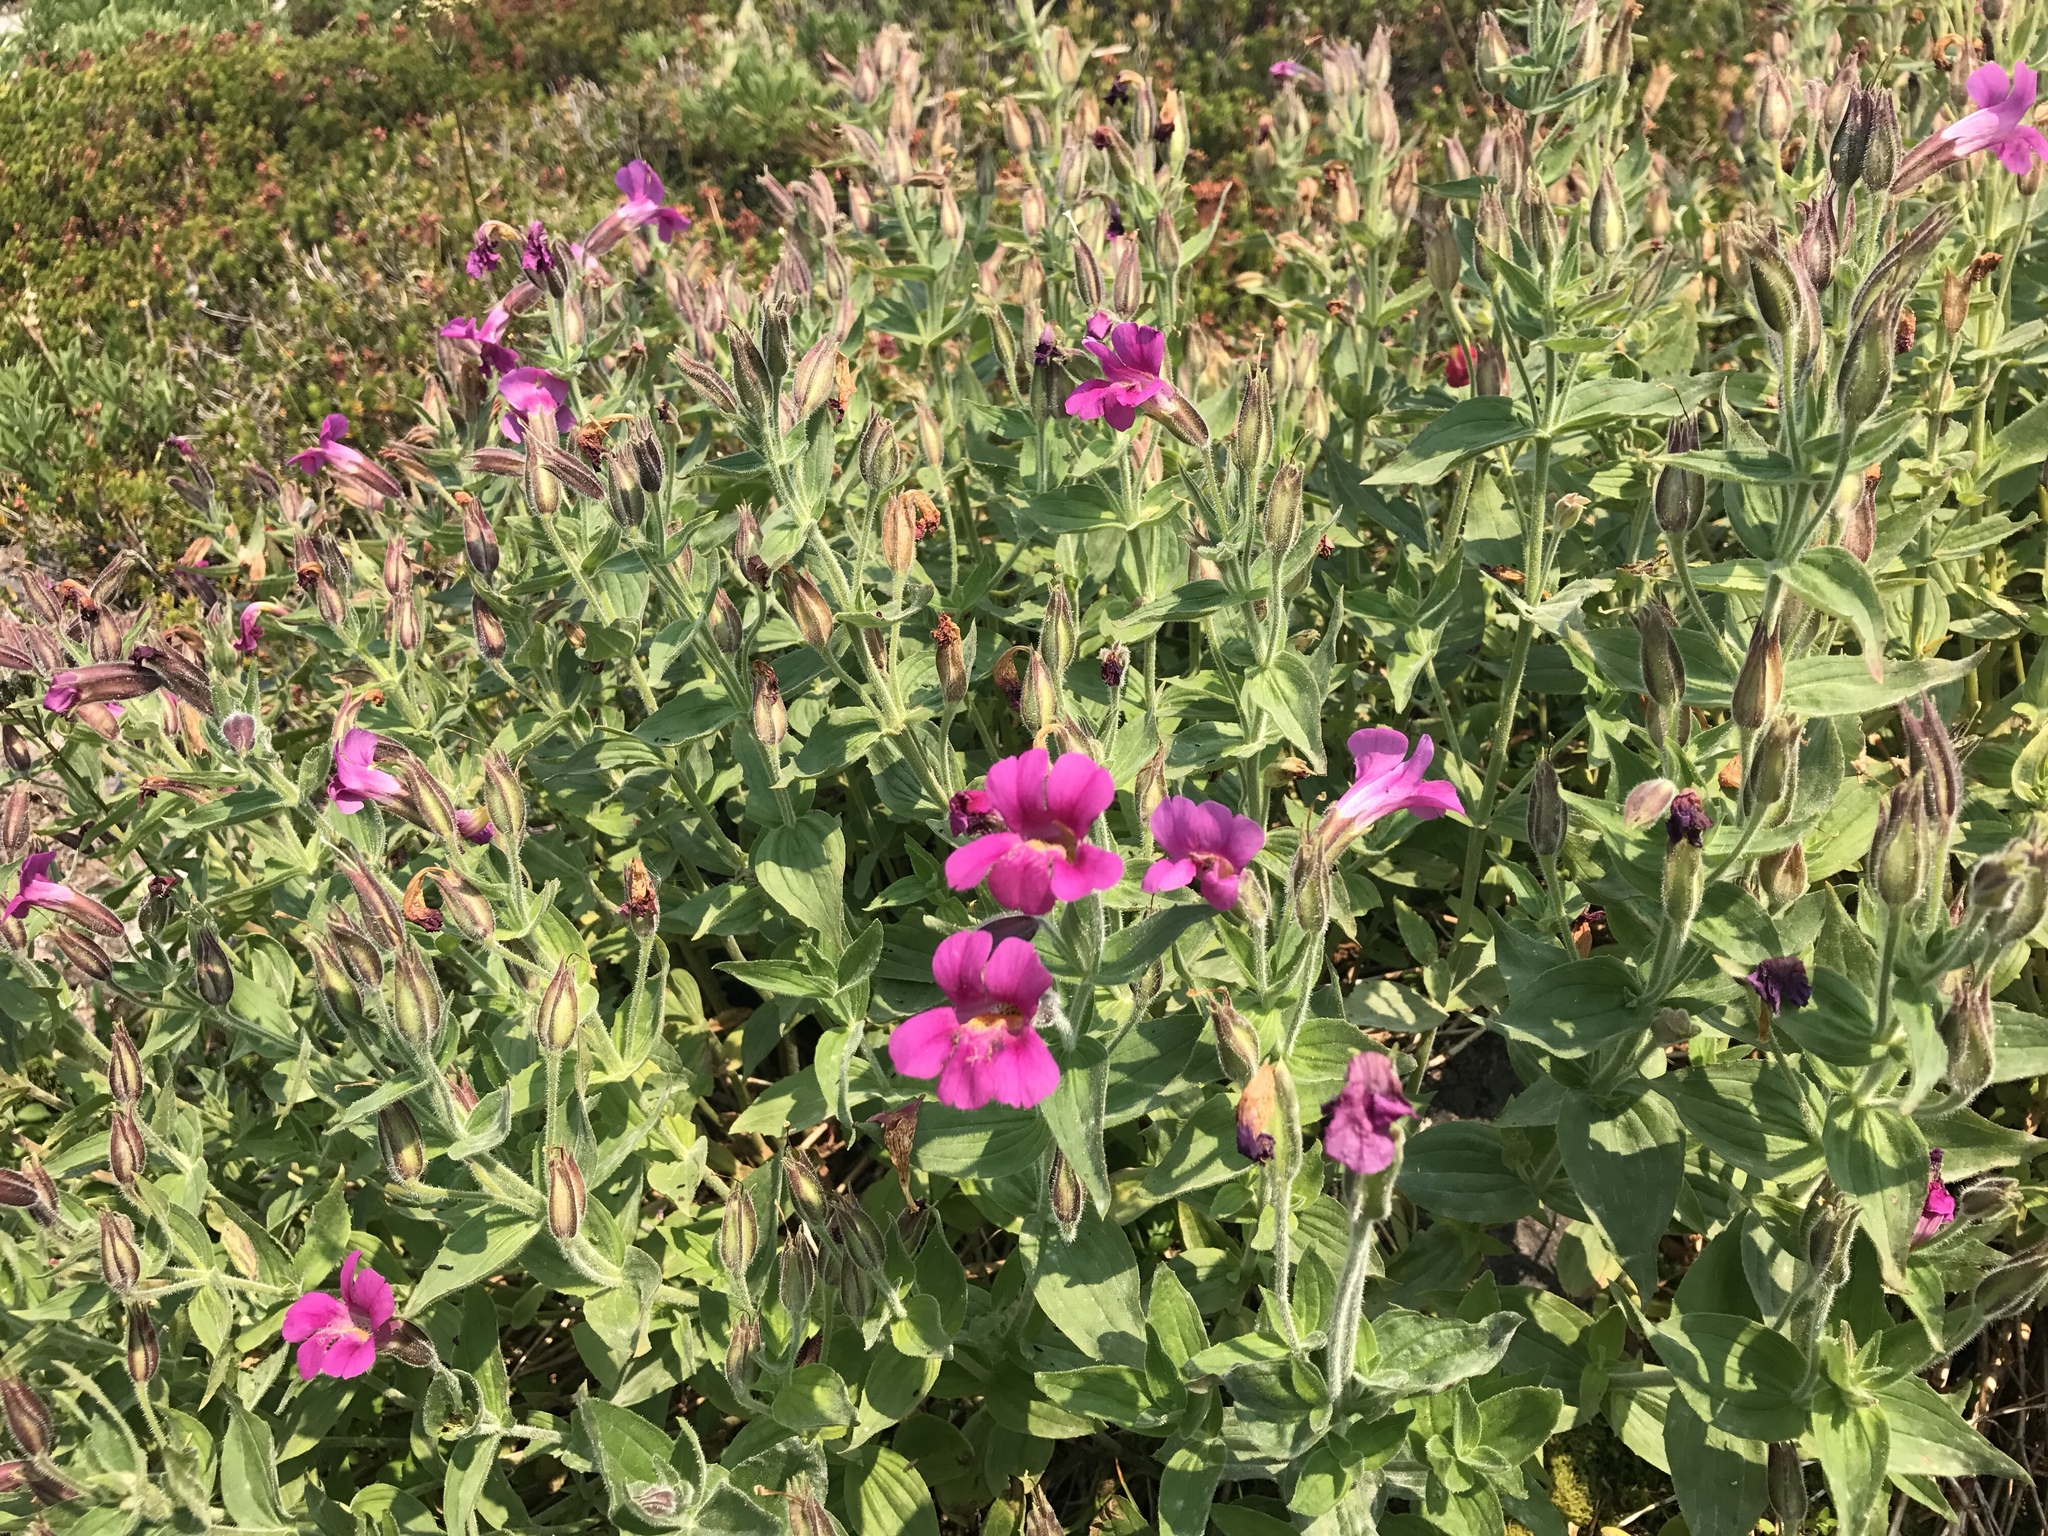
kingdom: Plantae
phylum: Tracheophyta
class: Magnoliopsida
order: Lamiales
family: Phrymaceae
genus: Erythranthe
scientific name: Erythranthe lewisii
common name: Lewis's monkey-flower
